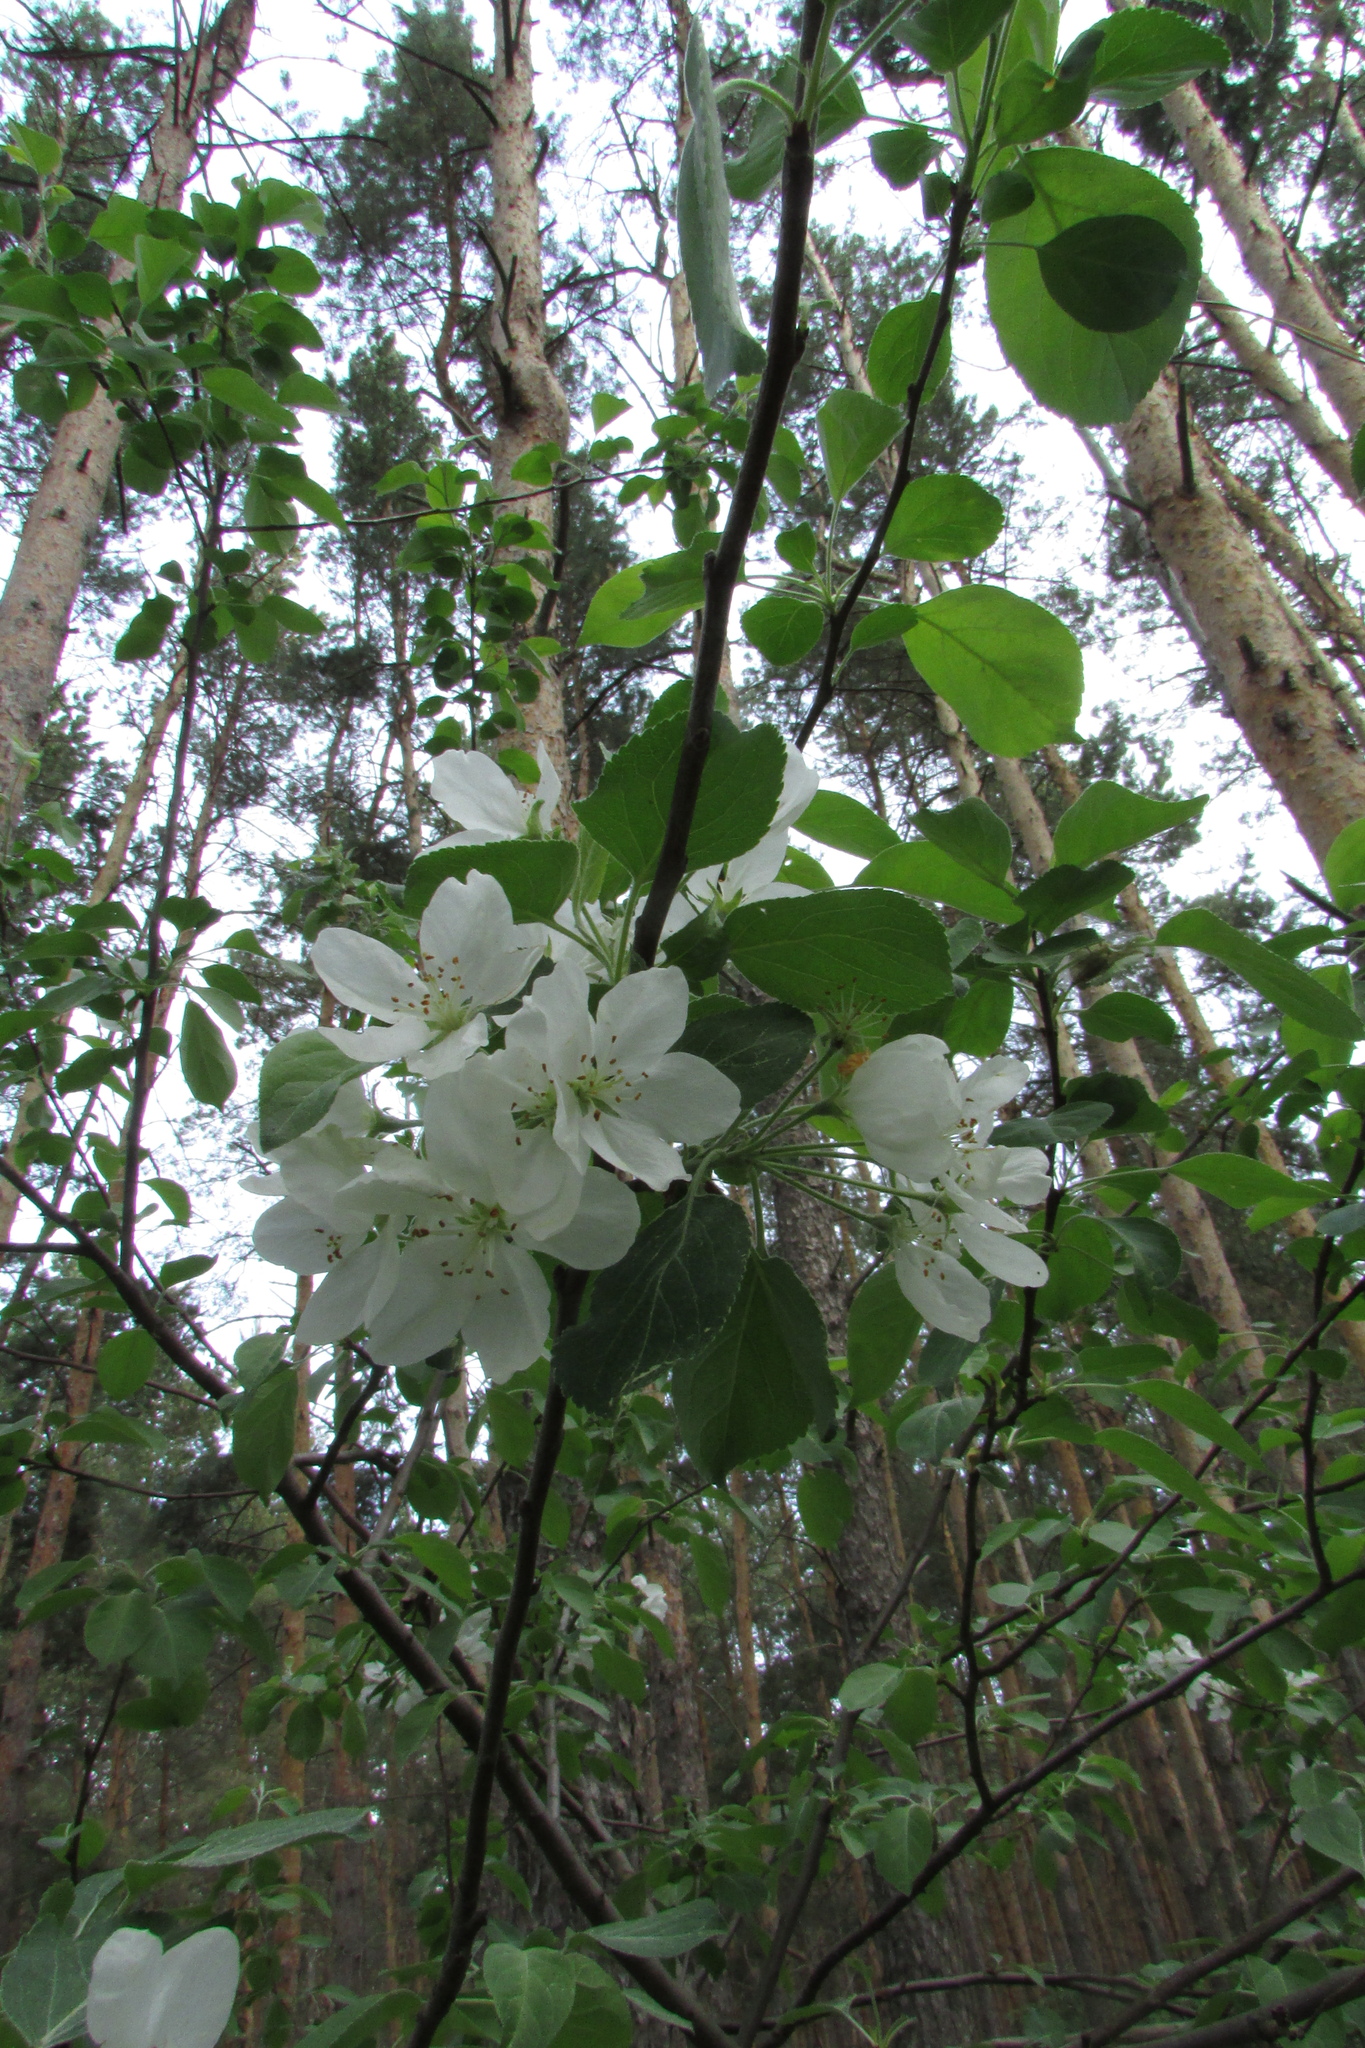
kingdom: Plantae
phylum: Tracheophyta
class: Magnoliopsida
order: Rosales
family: Rosaceae
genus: Malus
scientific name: Malus domestica
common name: Apple
